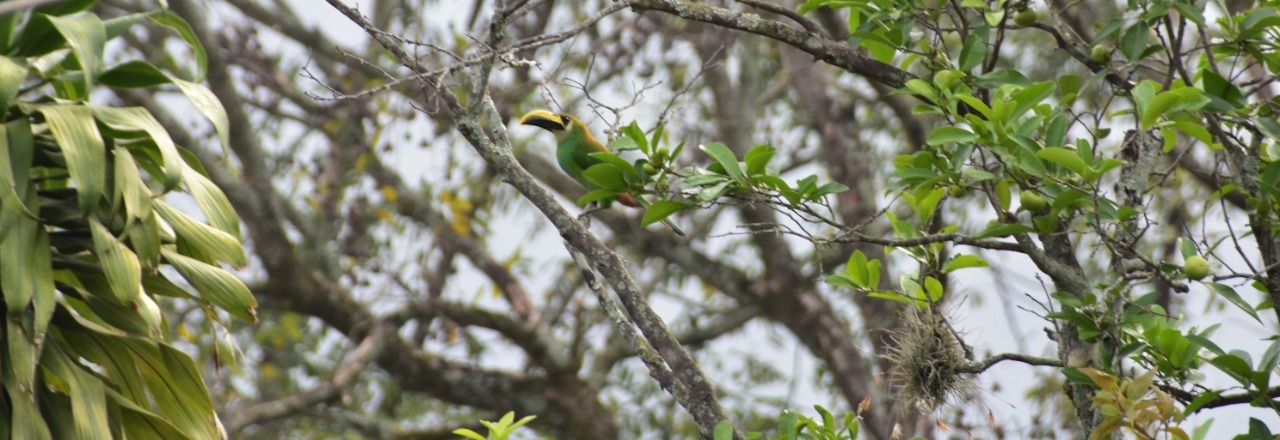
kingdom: Animalia
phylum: Chordata
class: Aves
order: Piciformes
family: Ramphastidae
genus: Aulacorhynchus
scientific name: Aulacorhynchus prasinus
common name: Emerald toucanet
